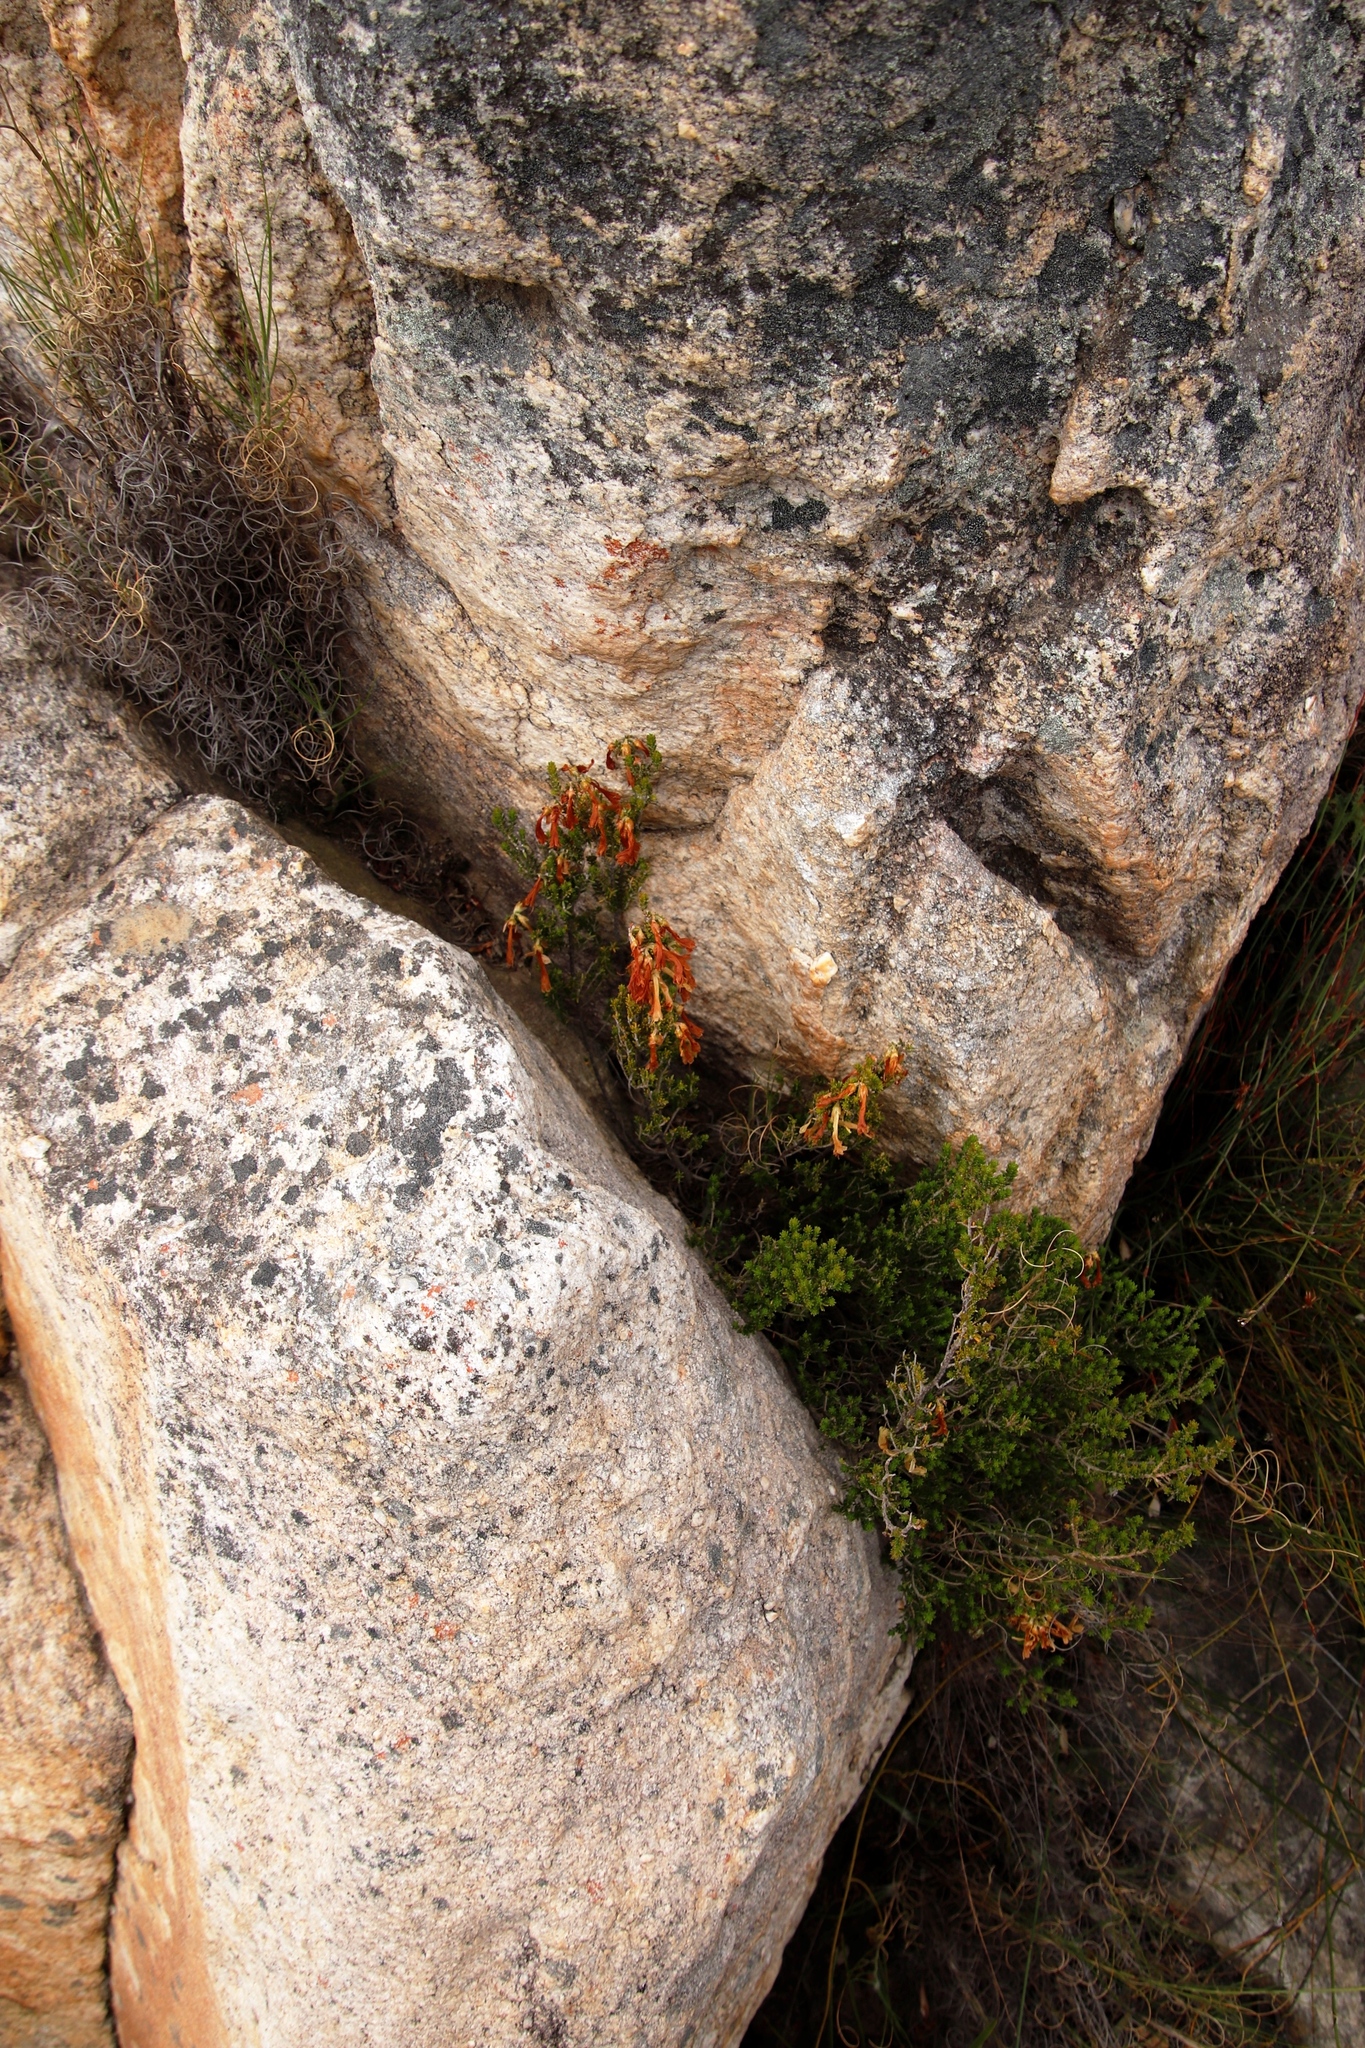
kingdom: Plantae
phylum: Tracheophyta
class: Magnoliopsida
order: Ericales
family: Ericaceae
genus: Erica
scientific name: Erica viridiflora
